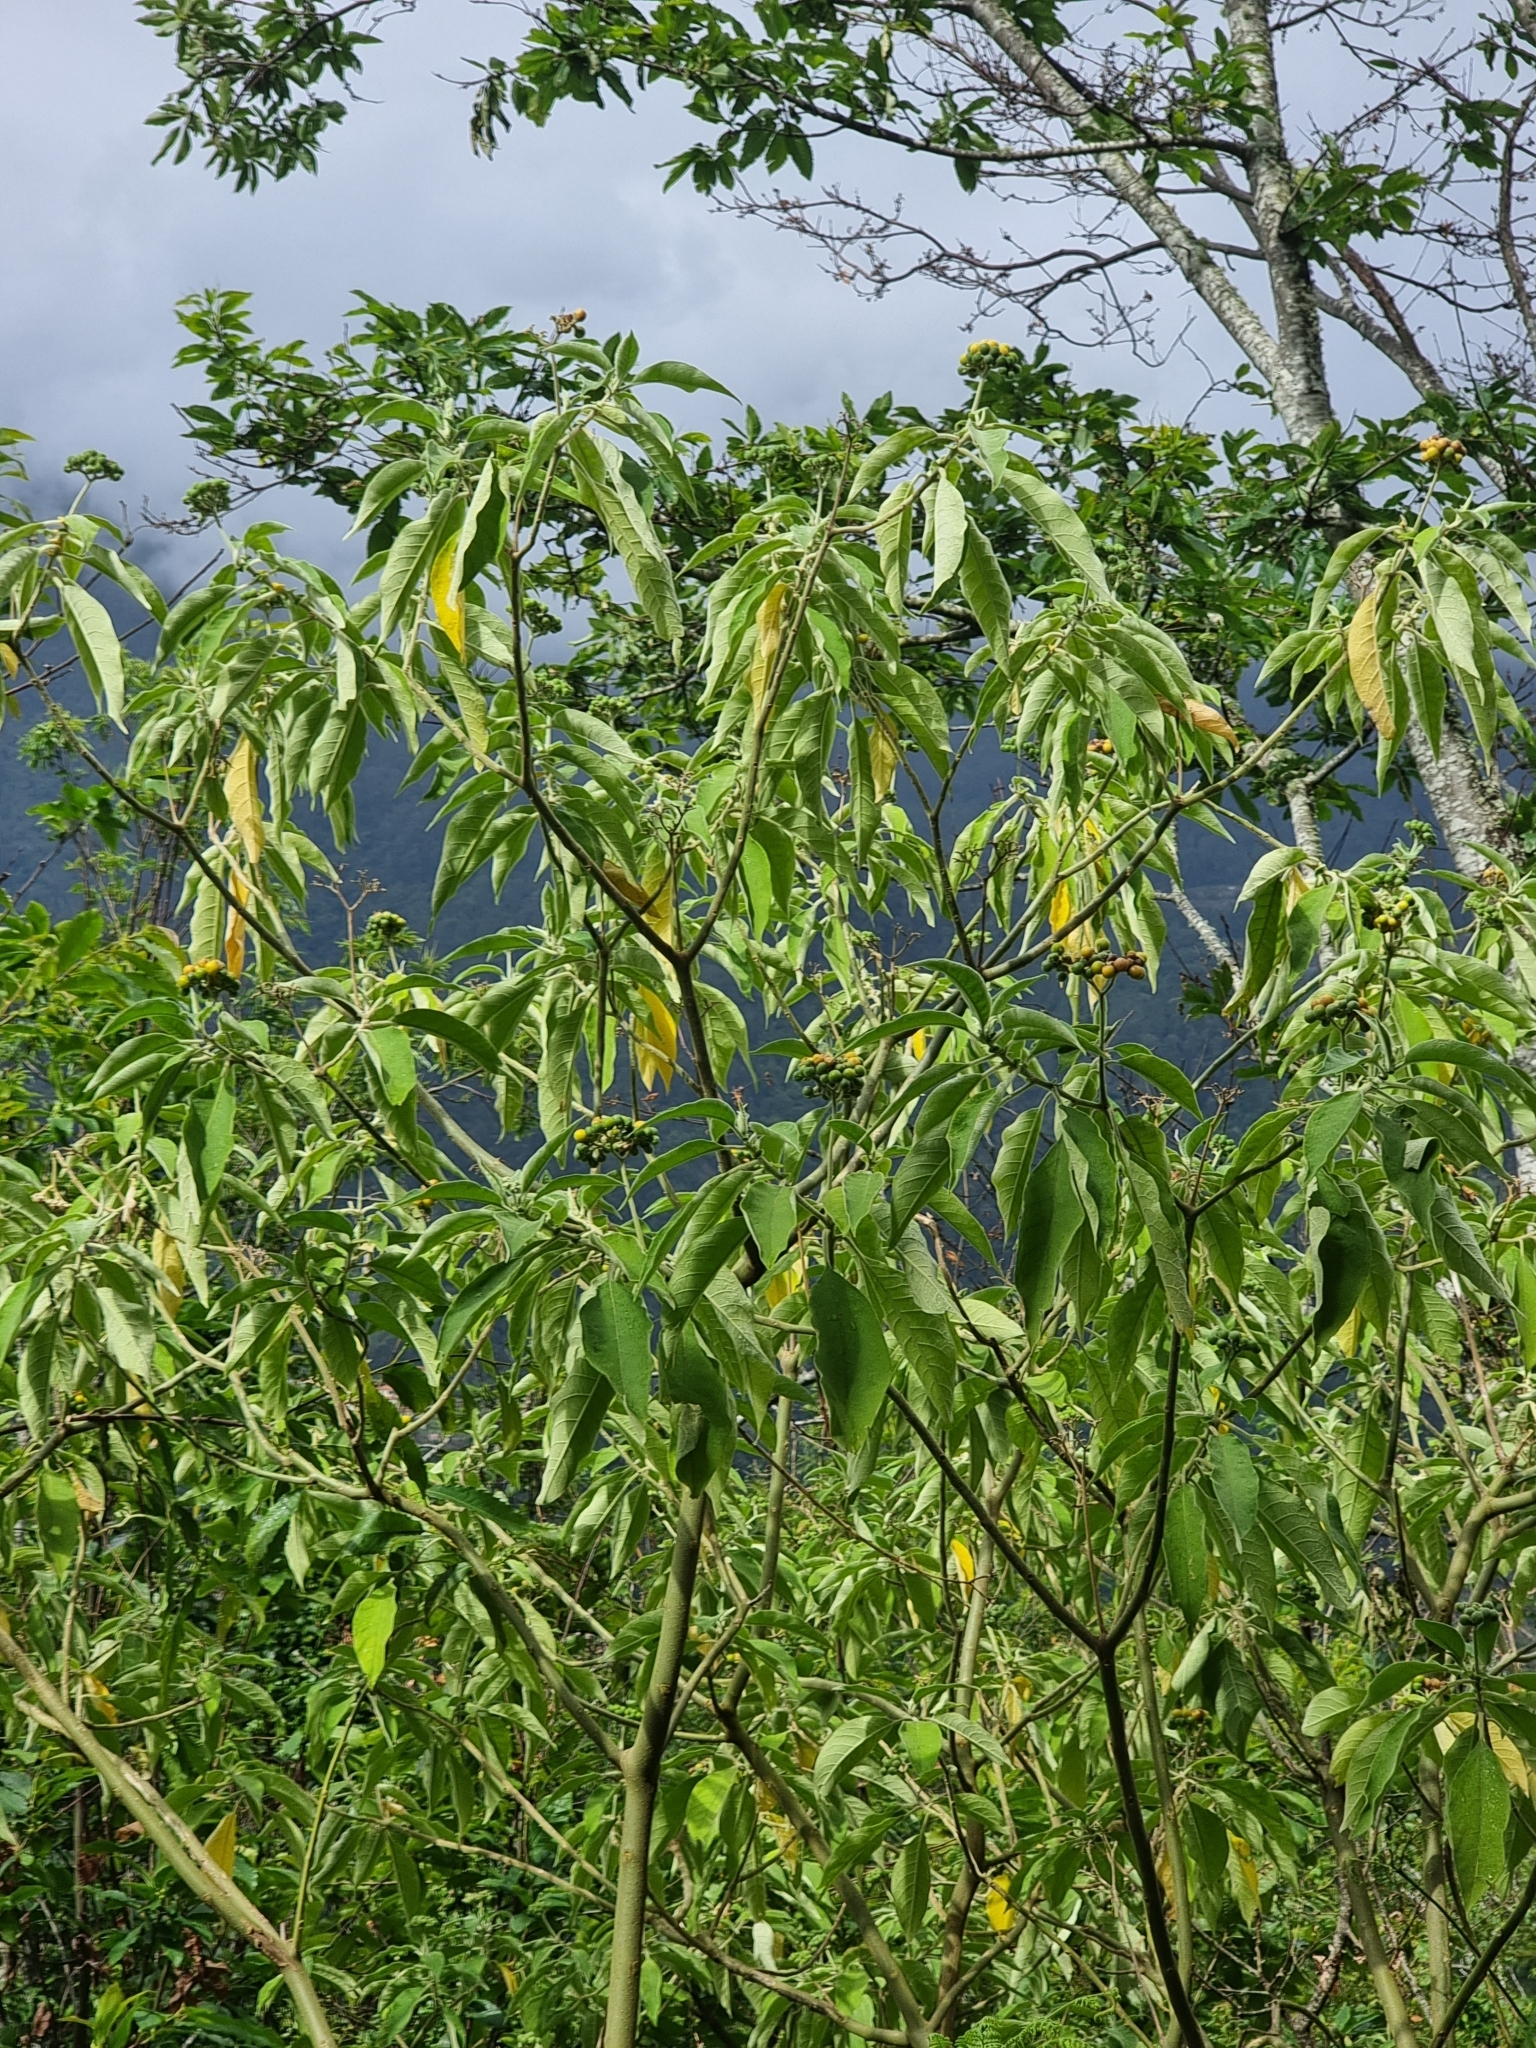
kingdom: Plantae
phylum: Tracheophyta
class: Magnoliopsida
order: Solanales
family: Solanaceae
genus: Solanum
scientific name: Solanum mauritianum
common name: Earleaf nightshade
